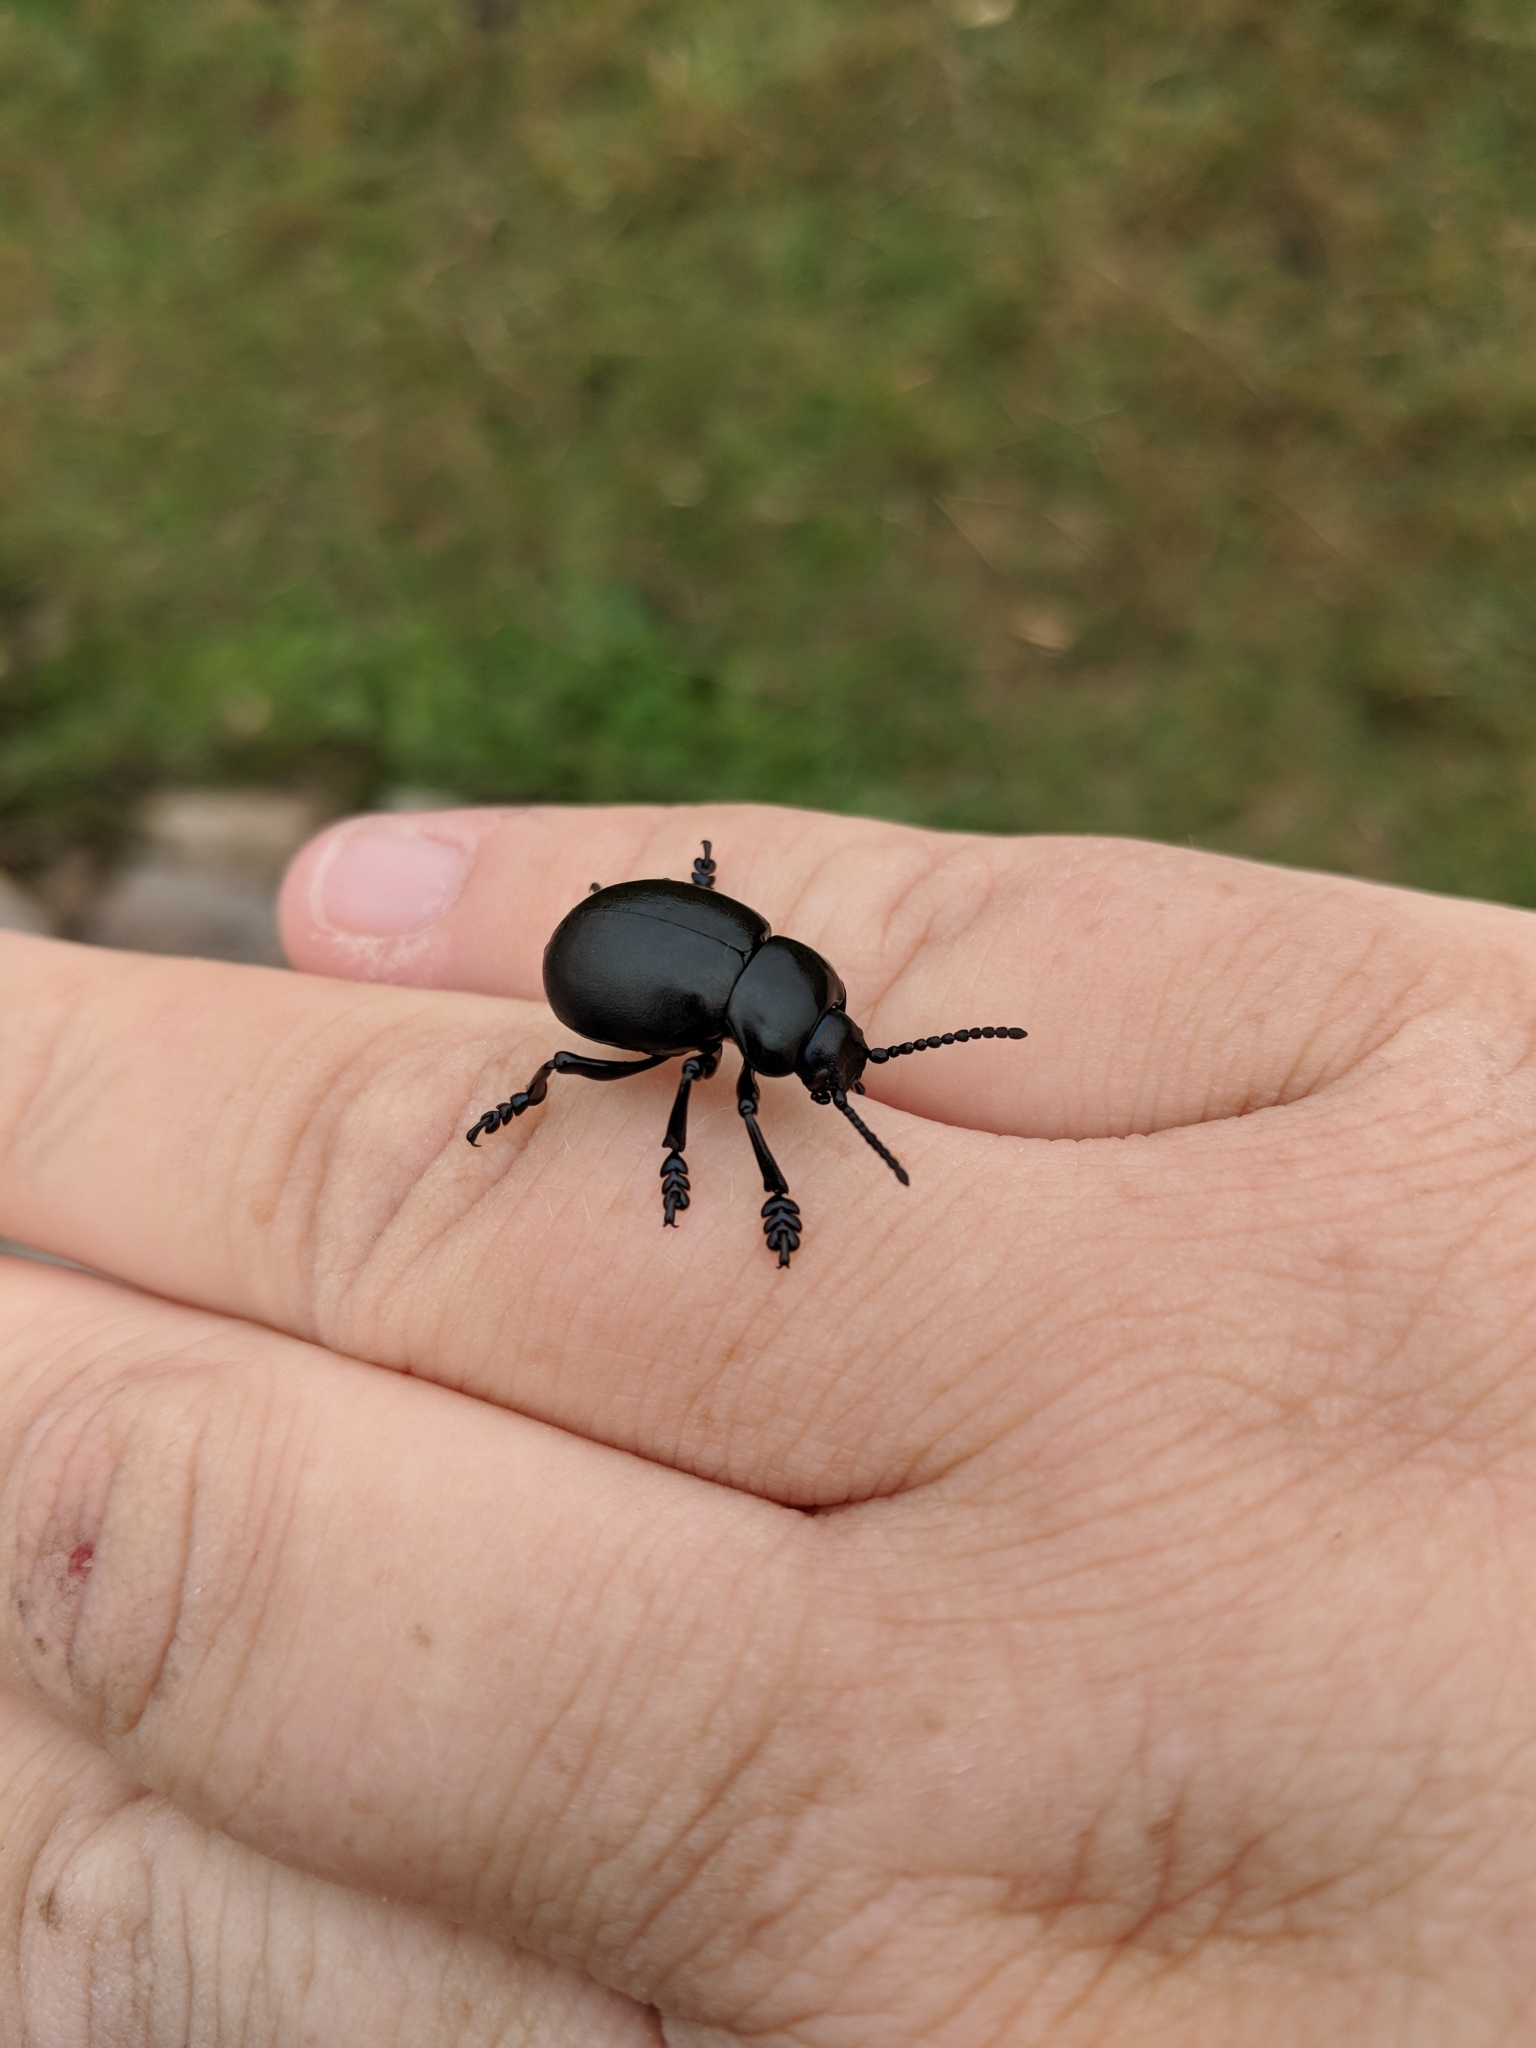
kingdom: Animalia
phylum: Arthropoda
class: Insecta
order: Coleoptera
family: Chrysomelidae
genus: Timarcha
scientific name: Timarcha tenebricosa
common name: Bloody-nosed beetle
